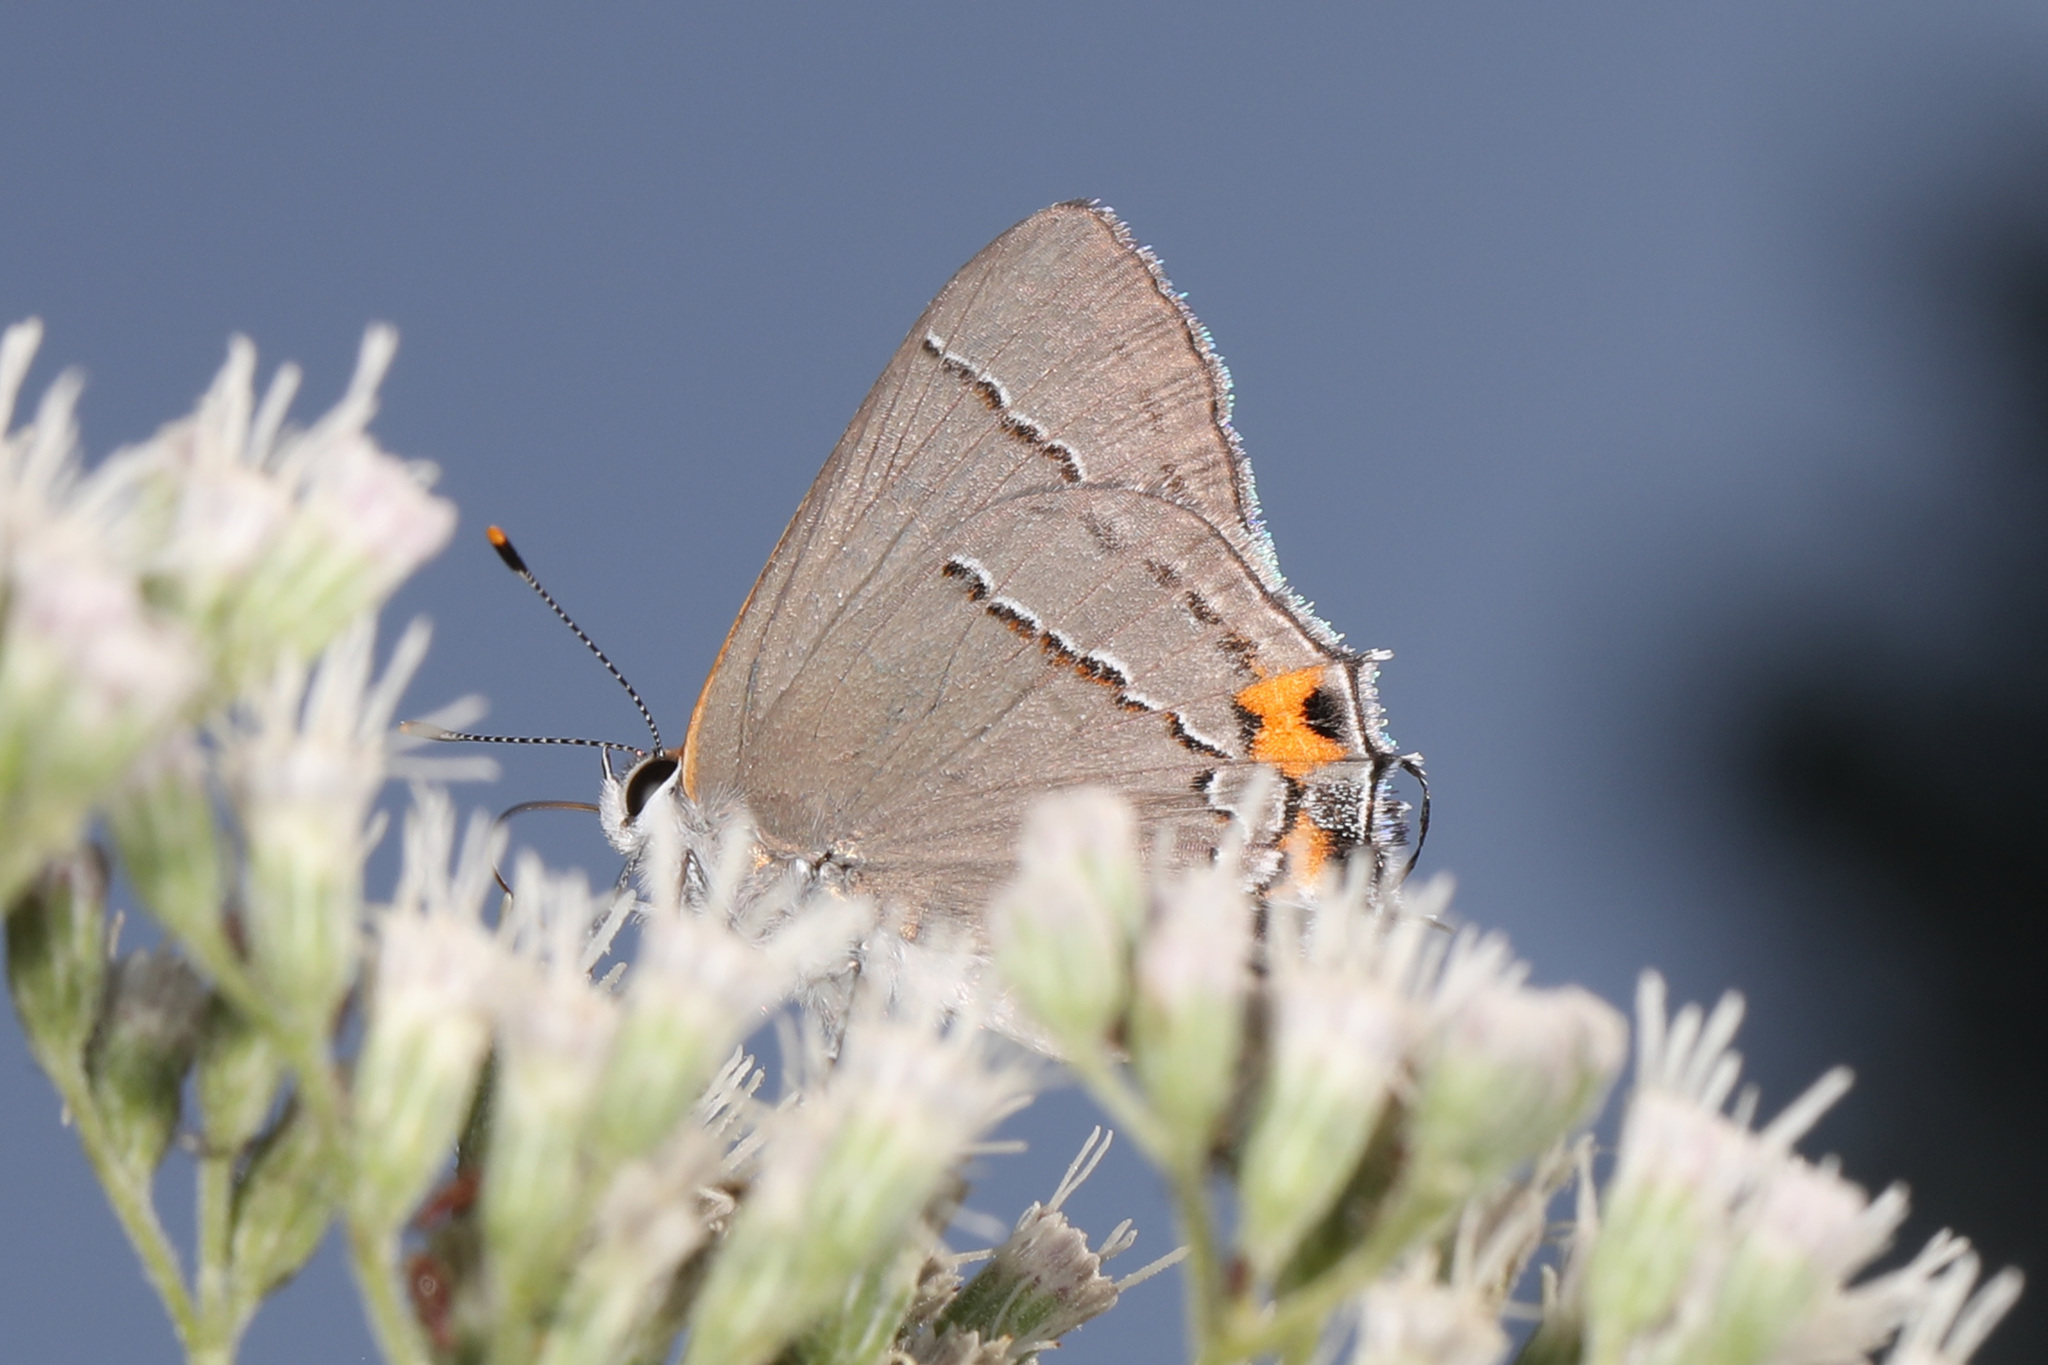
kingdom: Animalia
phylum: Arthropoda
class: Insecta
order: Lepidoptera
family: Lycaenidae
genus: Strymon
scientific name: Strymon melinus
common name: Gray hairstreak
